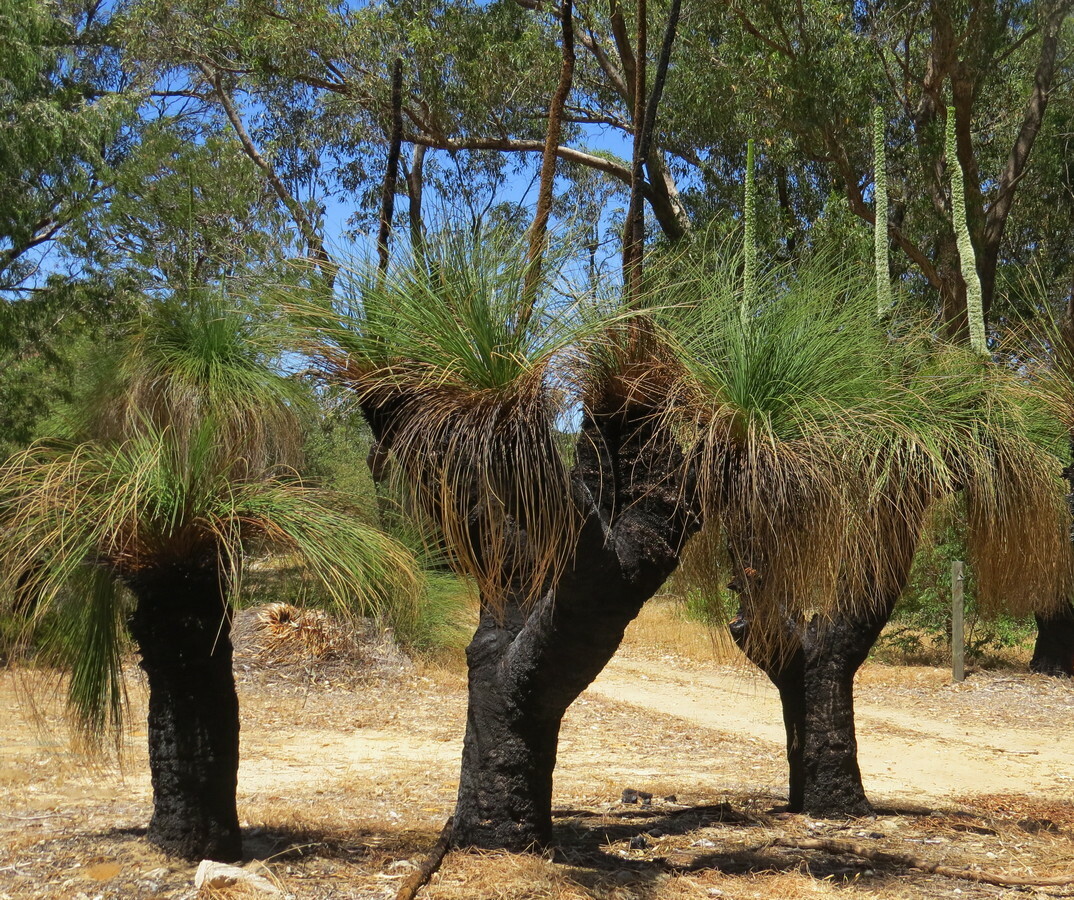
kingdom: Plantae
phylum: Tracheophyta
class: Liliopsida
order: Asparagales
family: Asphodelaceae
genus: Xanthorrhoea
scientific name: Xanthorrhoea preissii
